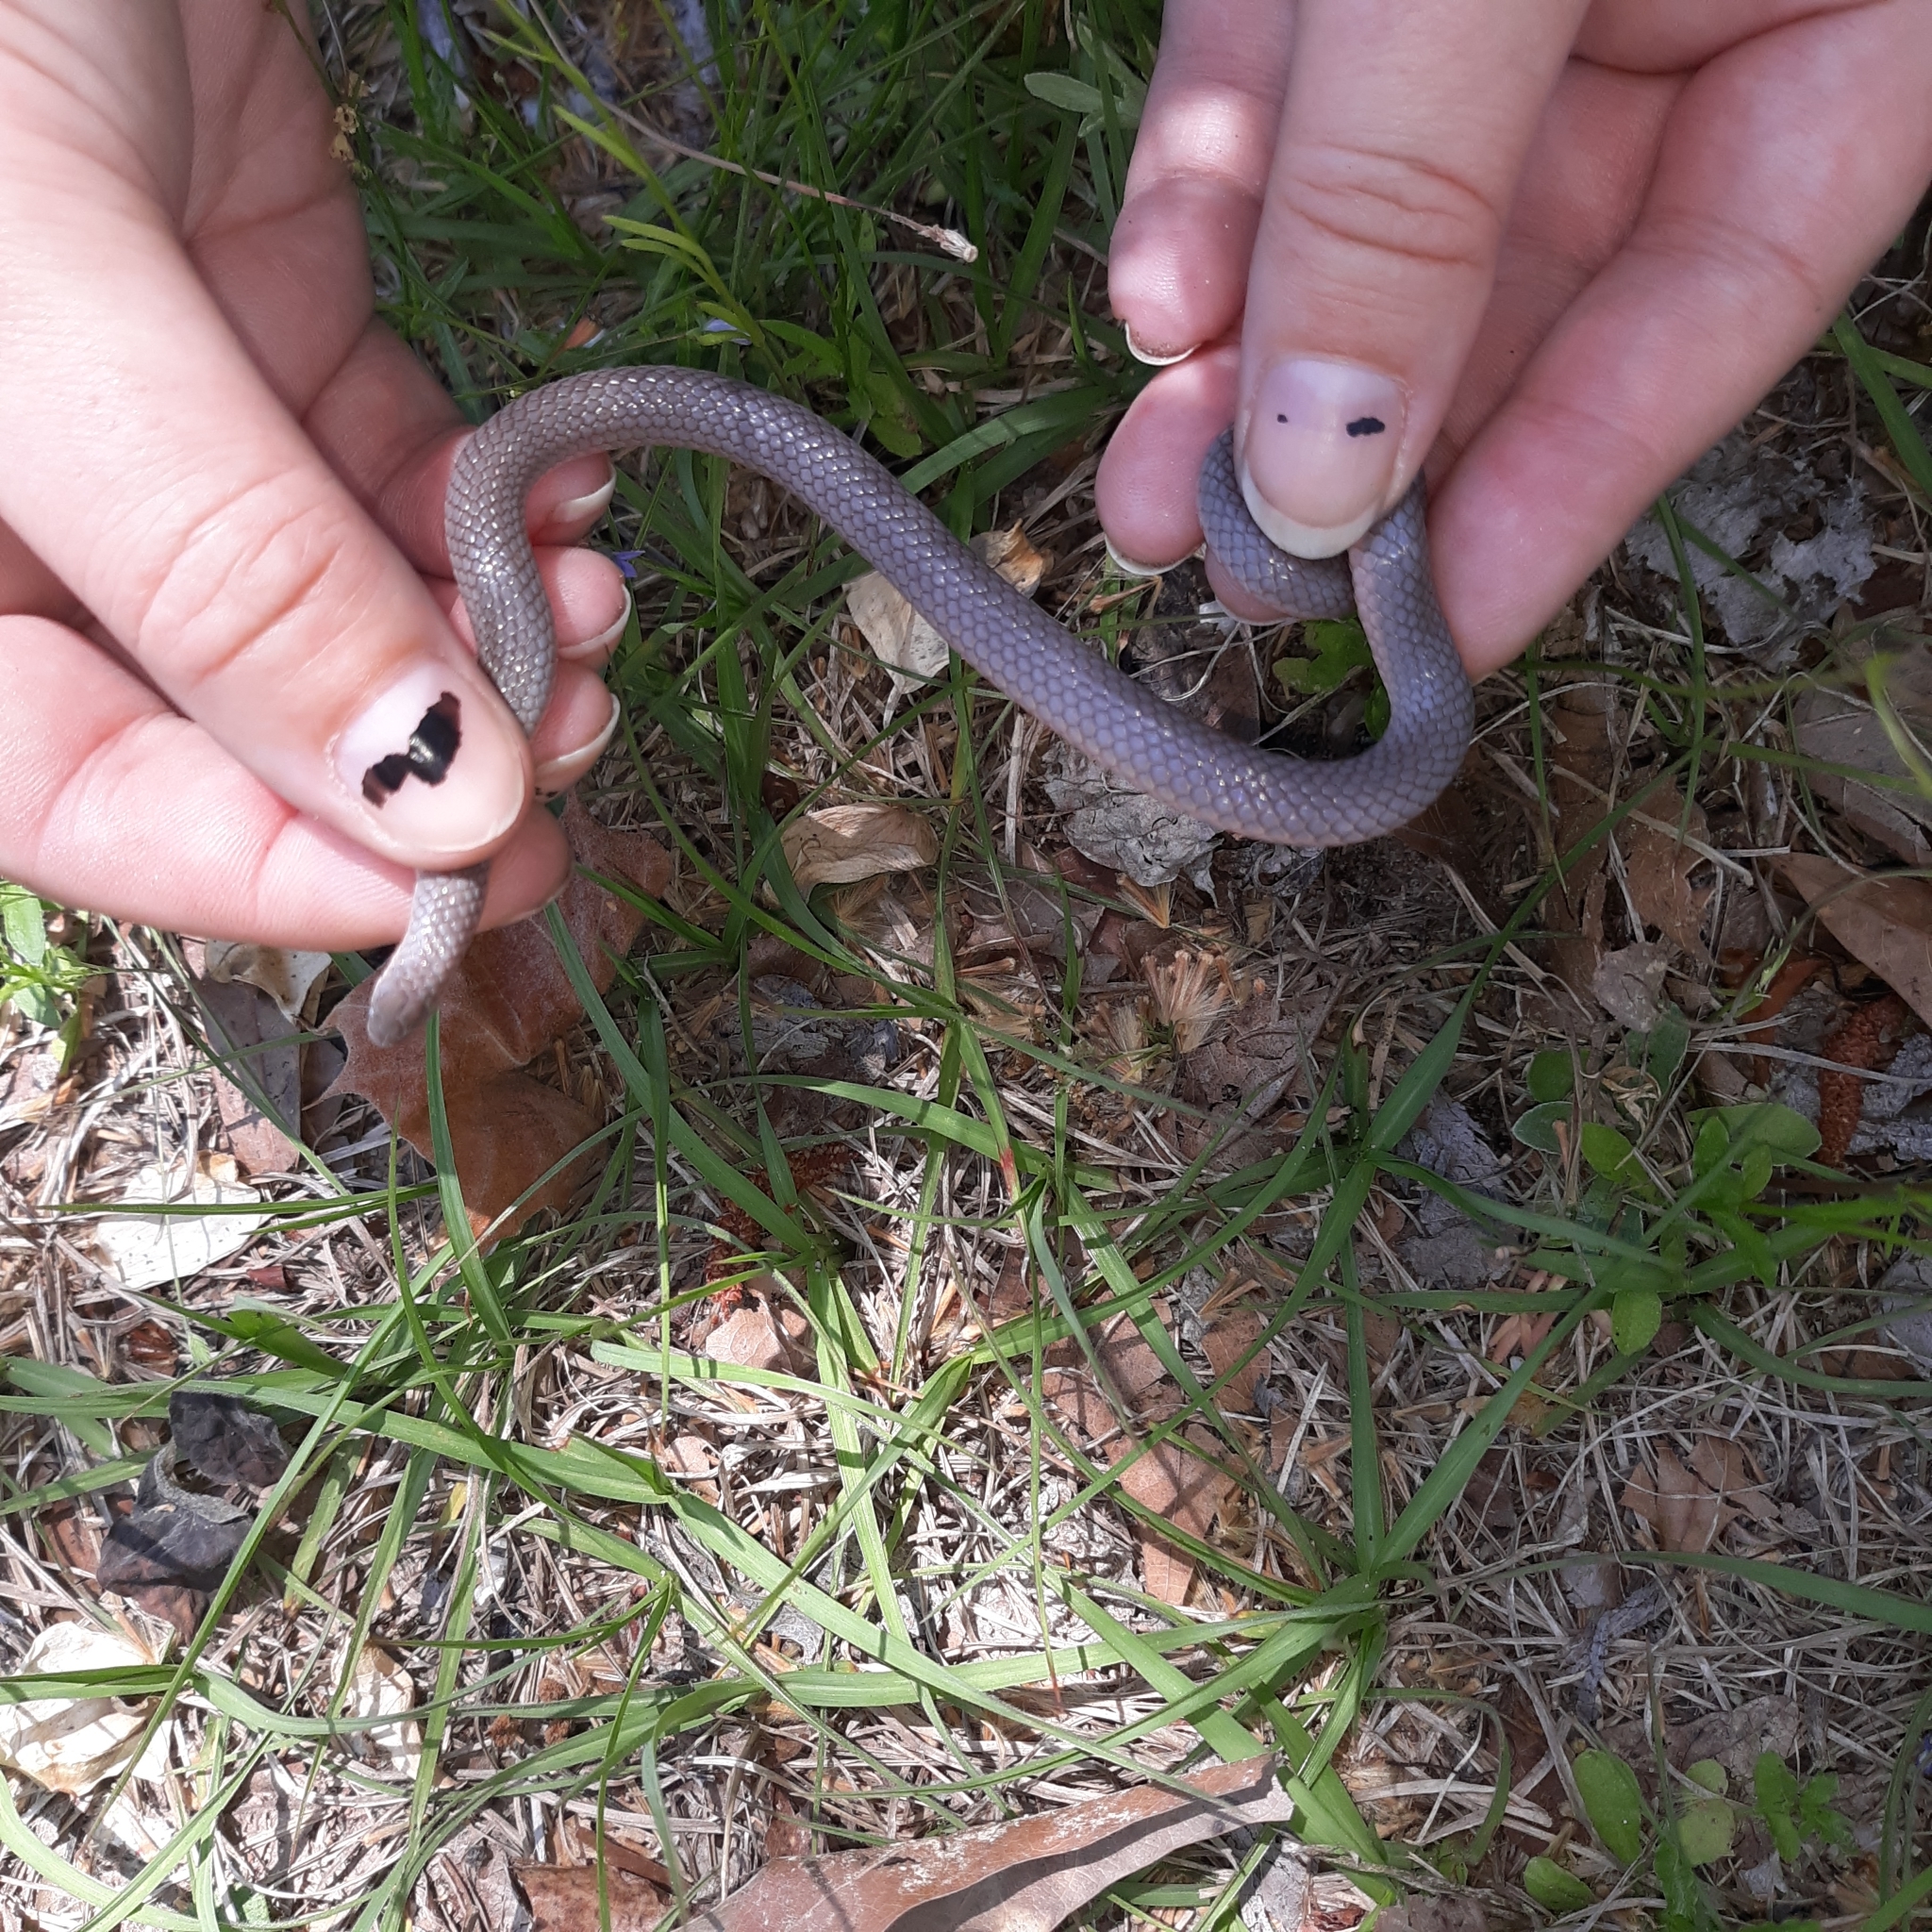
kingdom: Animalia
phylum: Chordata
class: Squamata
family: Colubridae
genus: Carphophis
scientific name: Carphophis amoenus
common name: Eastern worm snake
